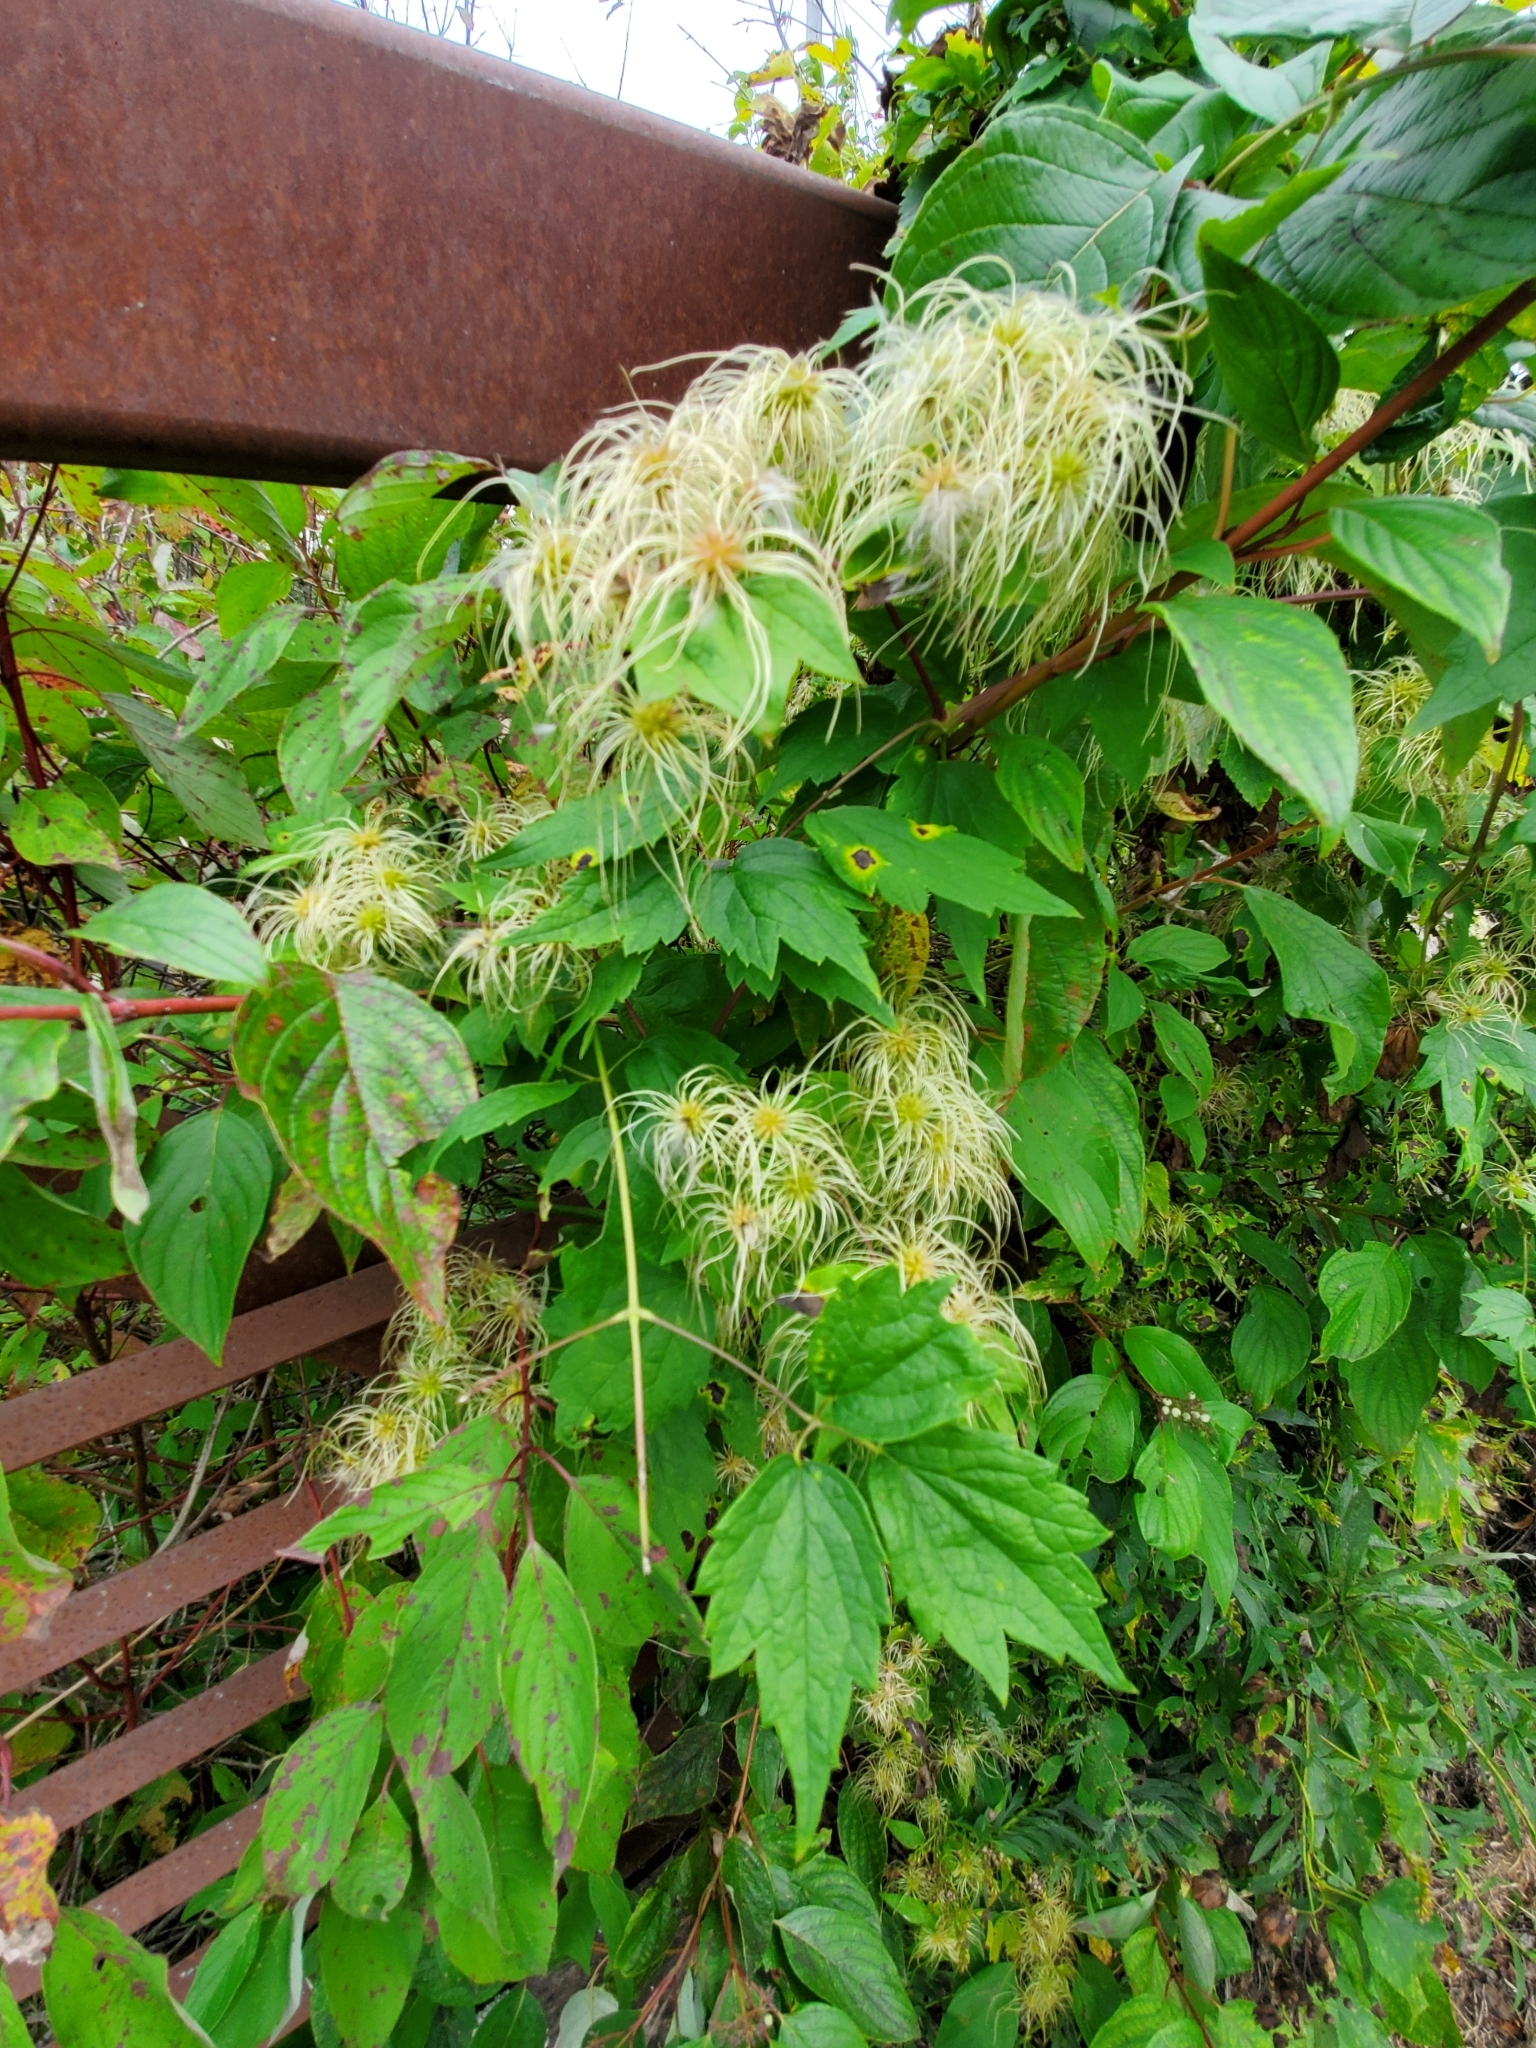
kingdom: Plantae
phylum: Tracheophyta
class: Magnoliopsida
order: Ranunculales
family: Ranunculaceae
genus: Clematis
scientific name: Clematis virginiana
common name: Virgin's-bower
